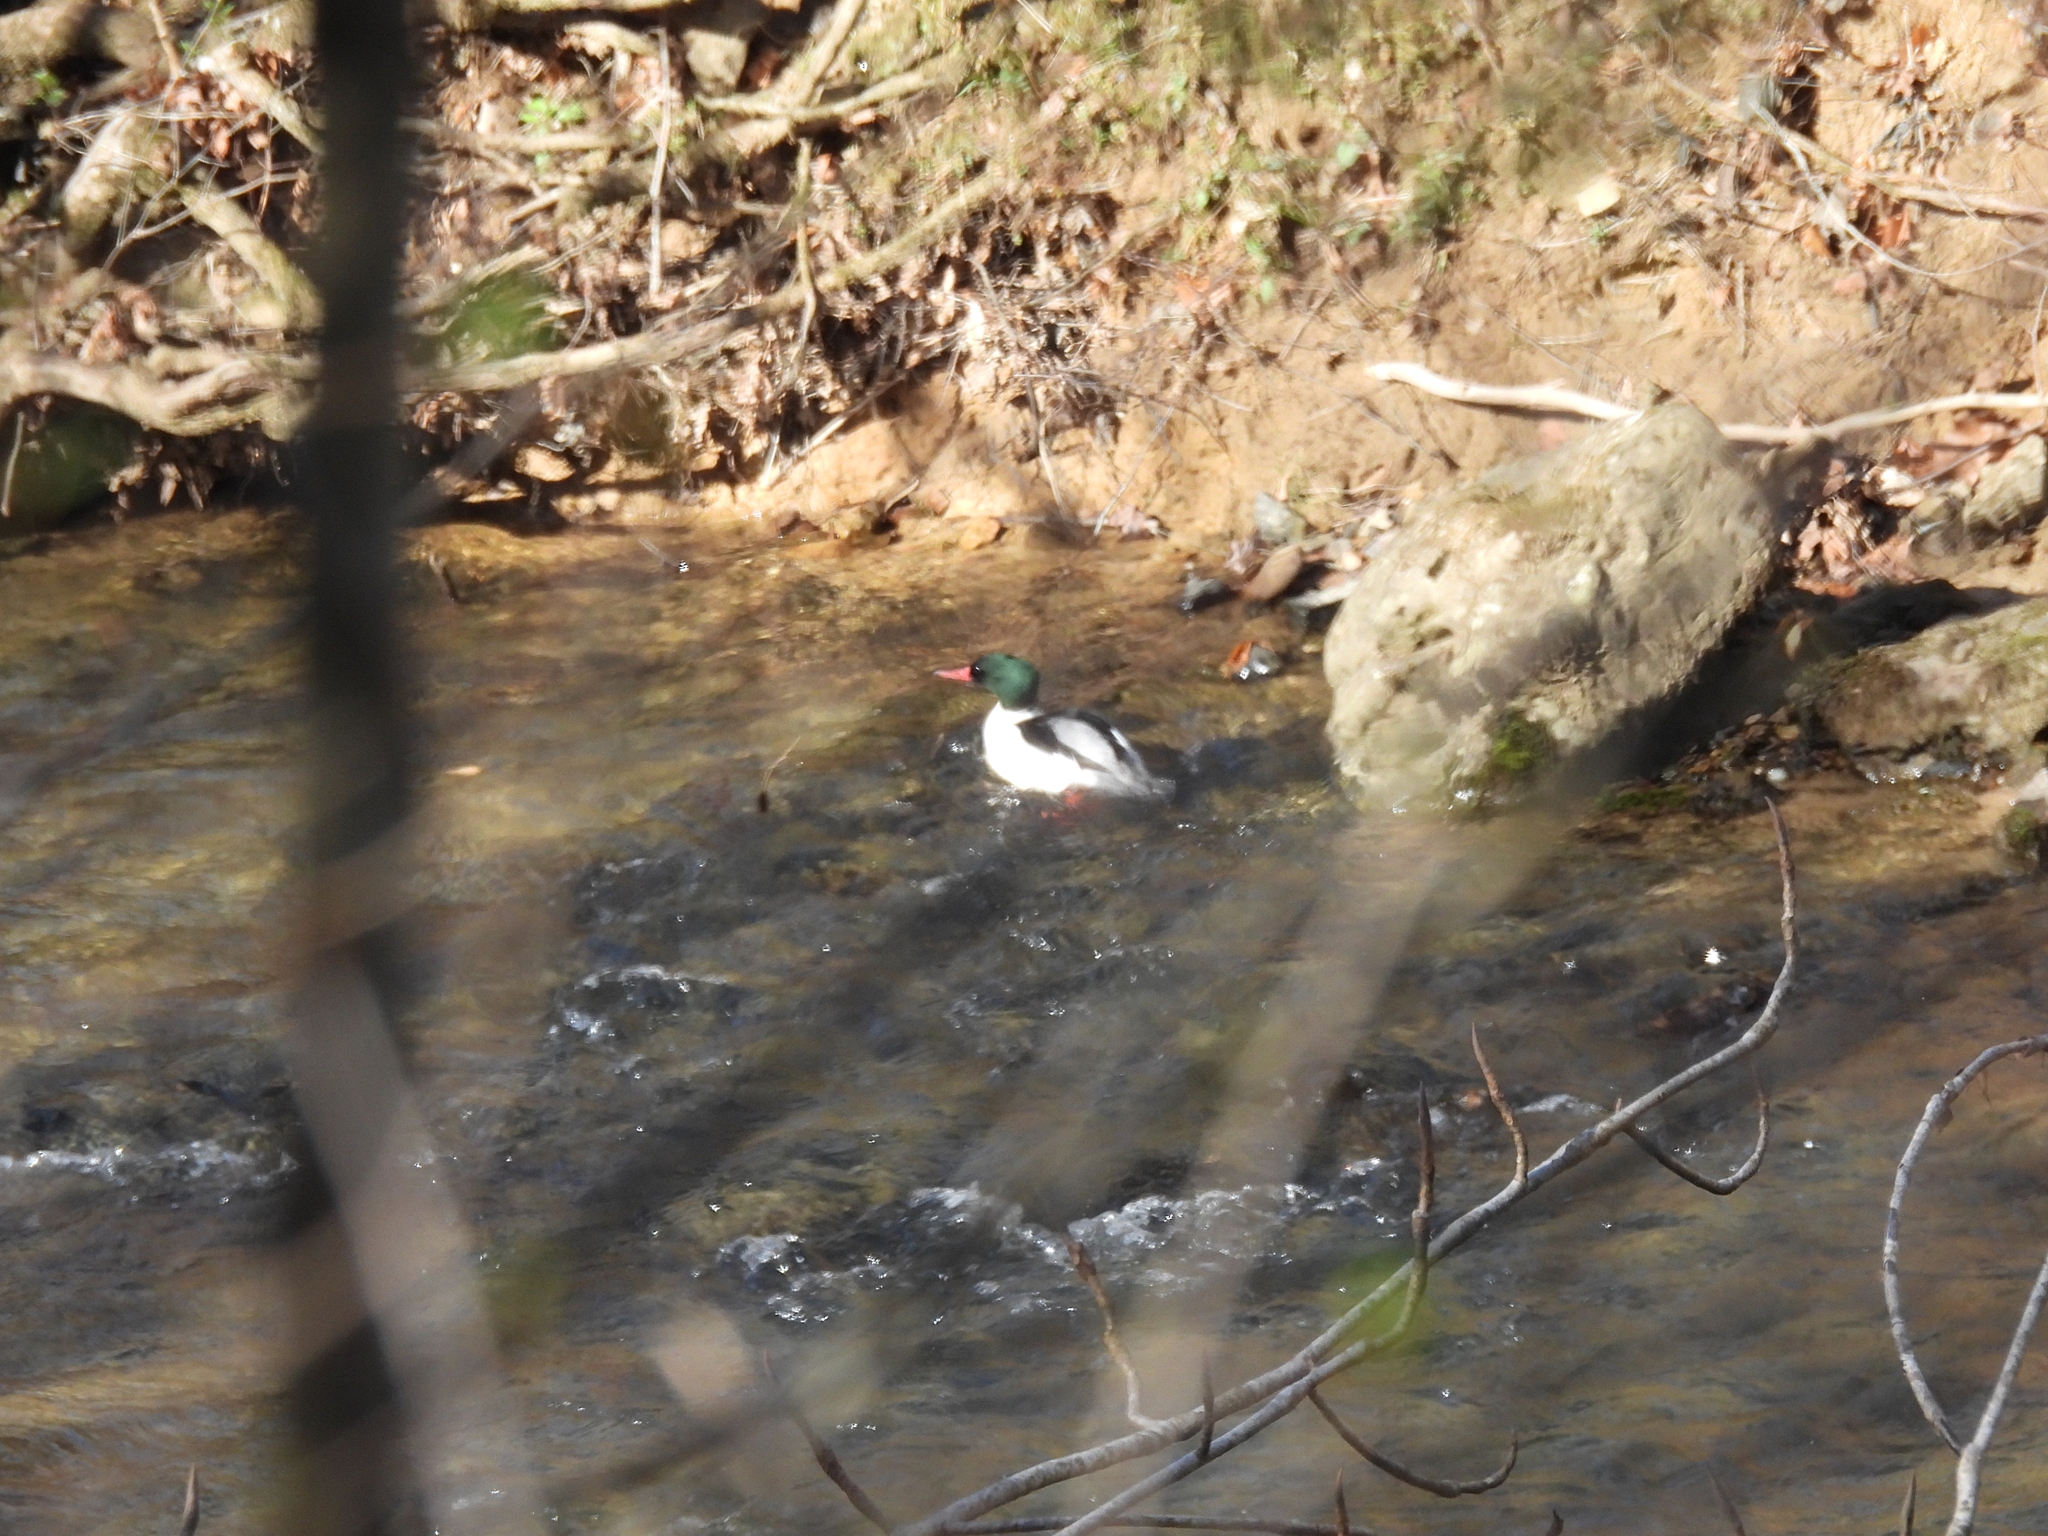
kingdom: Animalia
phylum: Chordata
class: Aves
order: Anseriformes
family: Anatidae
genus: Mergus
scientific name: Mergus merganser
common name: Common merganser
